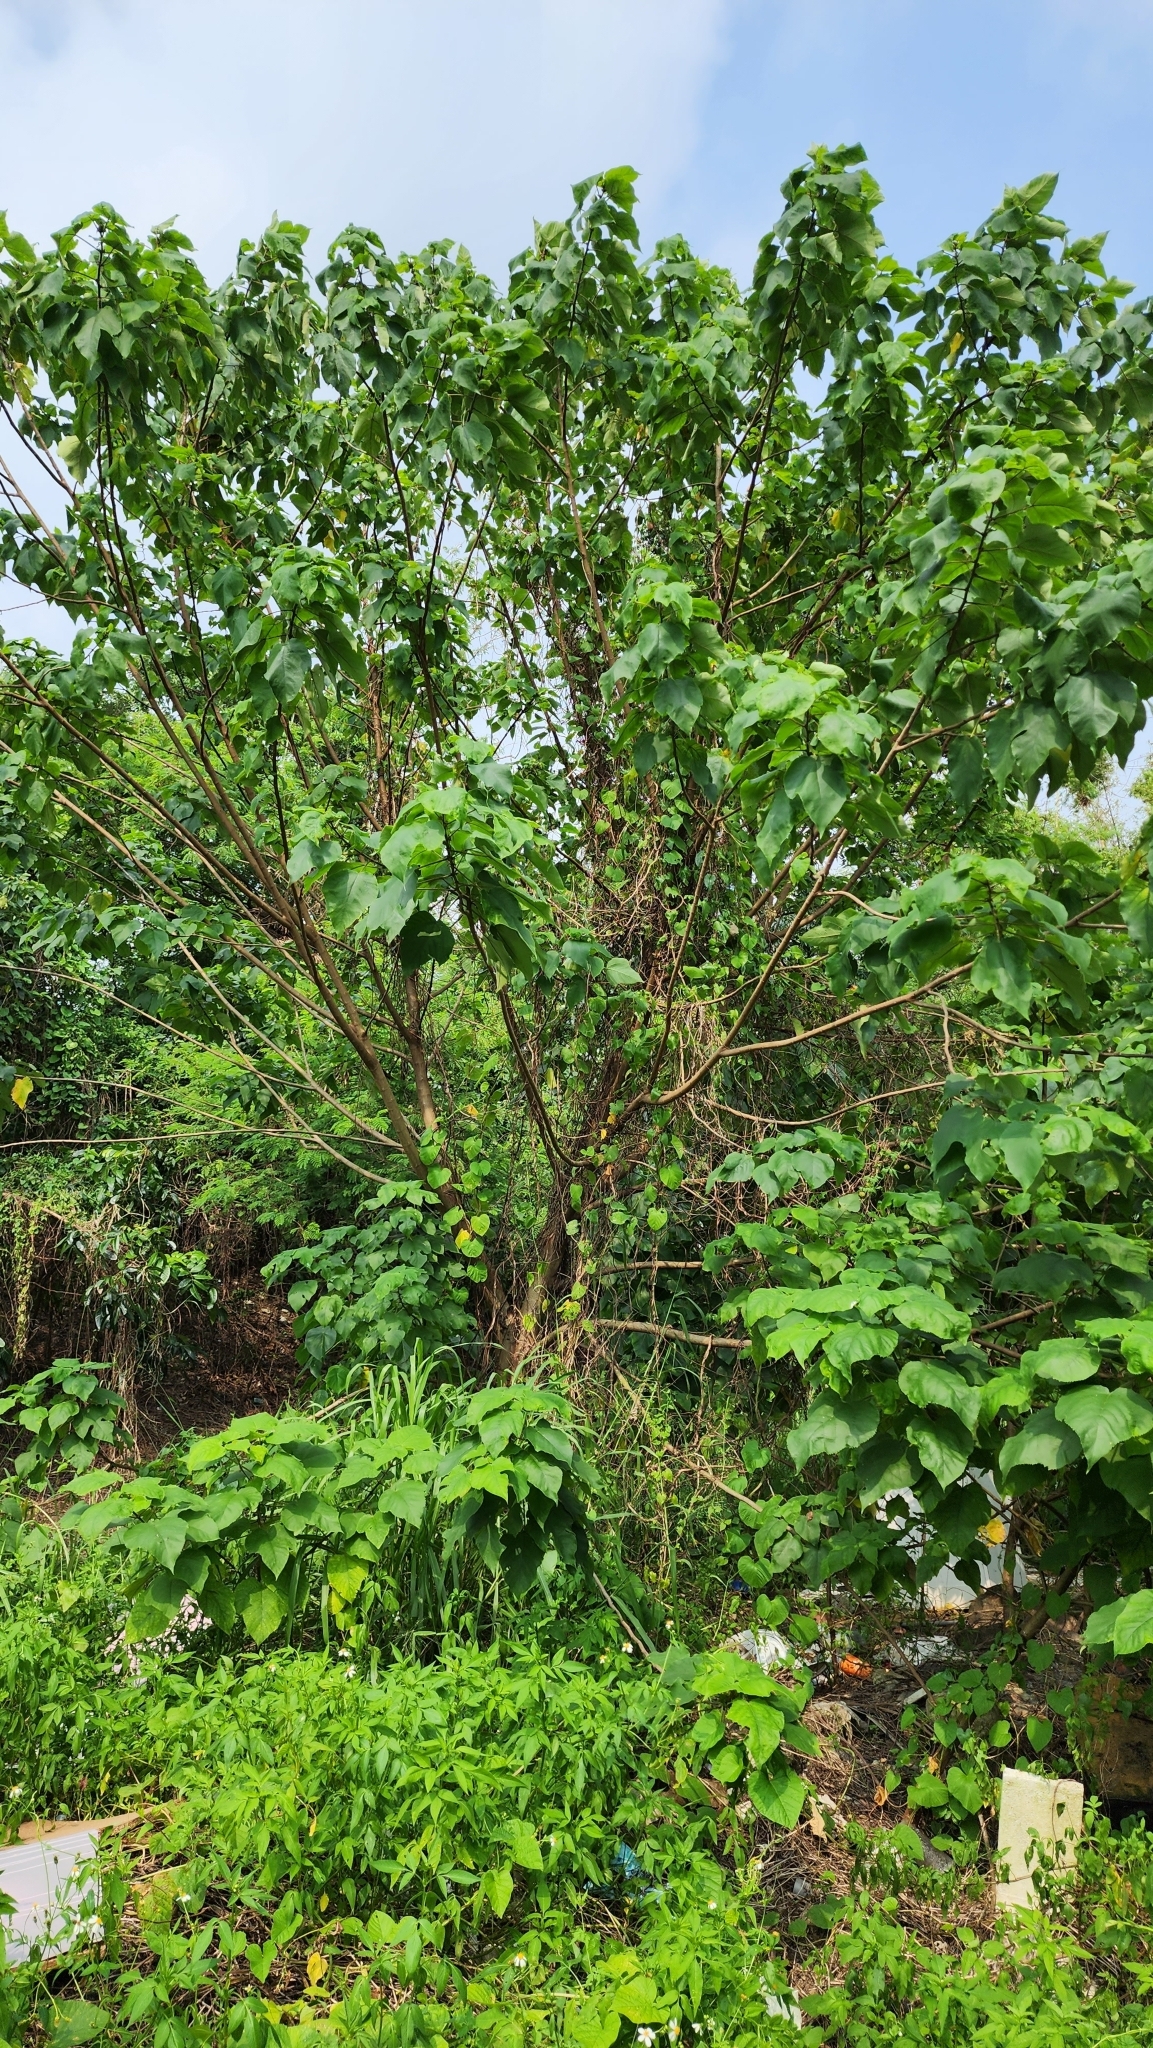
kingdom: Plantae
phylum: Tracheophyta
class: Magnoliopsida
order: Malvales
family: Malvaceae
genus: Hibiscus
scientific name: Hibiscus taiwanensis
